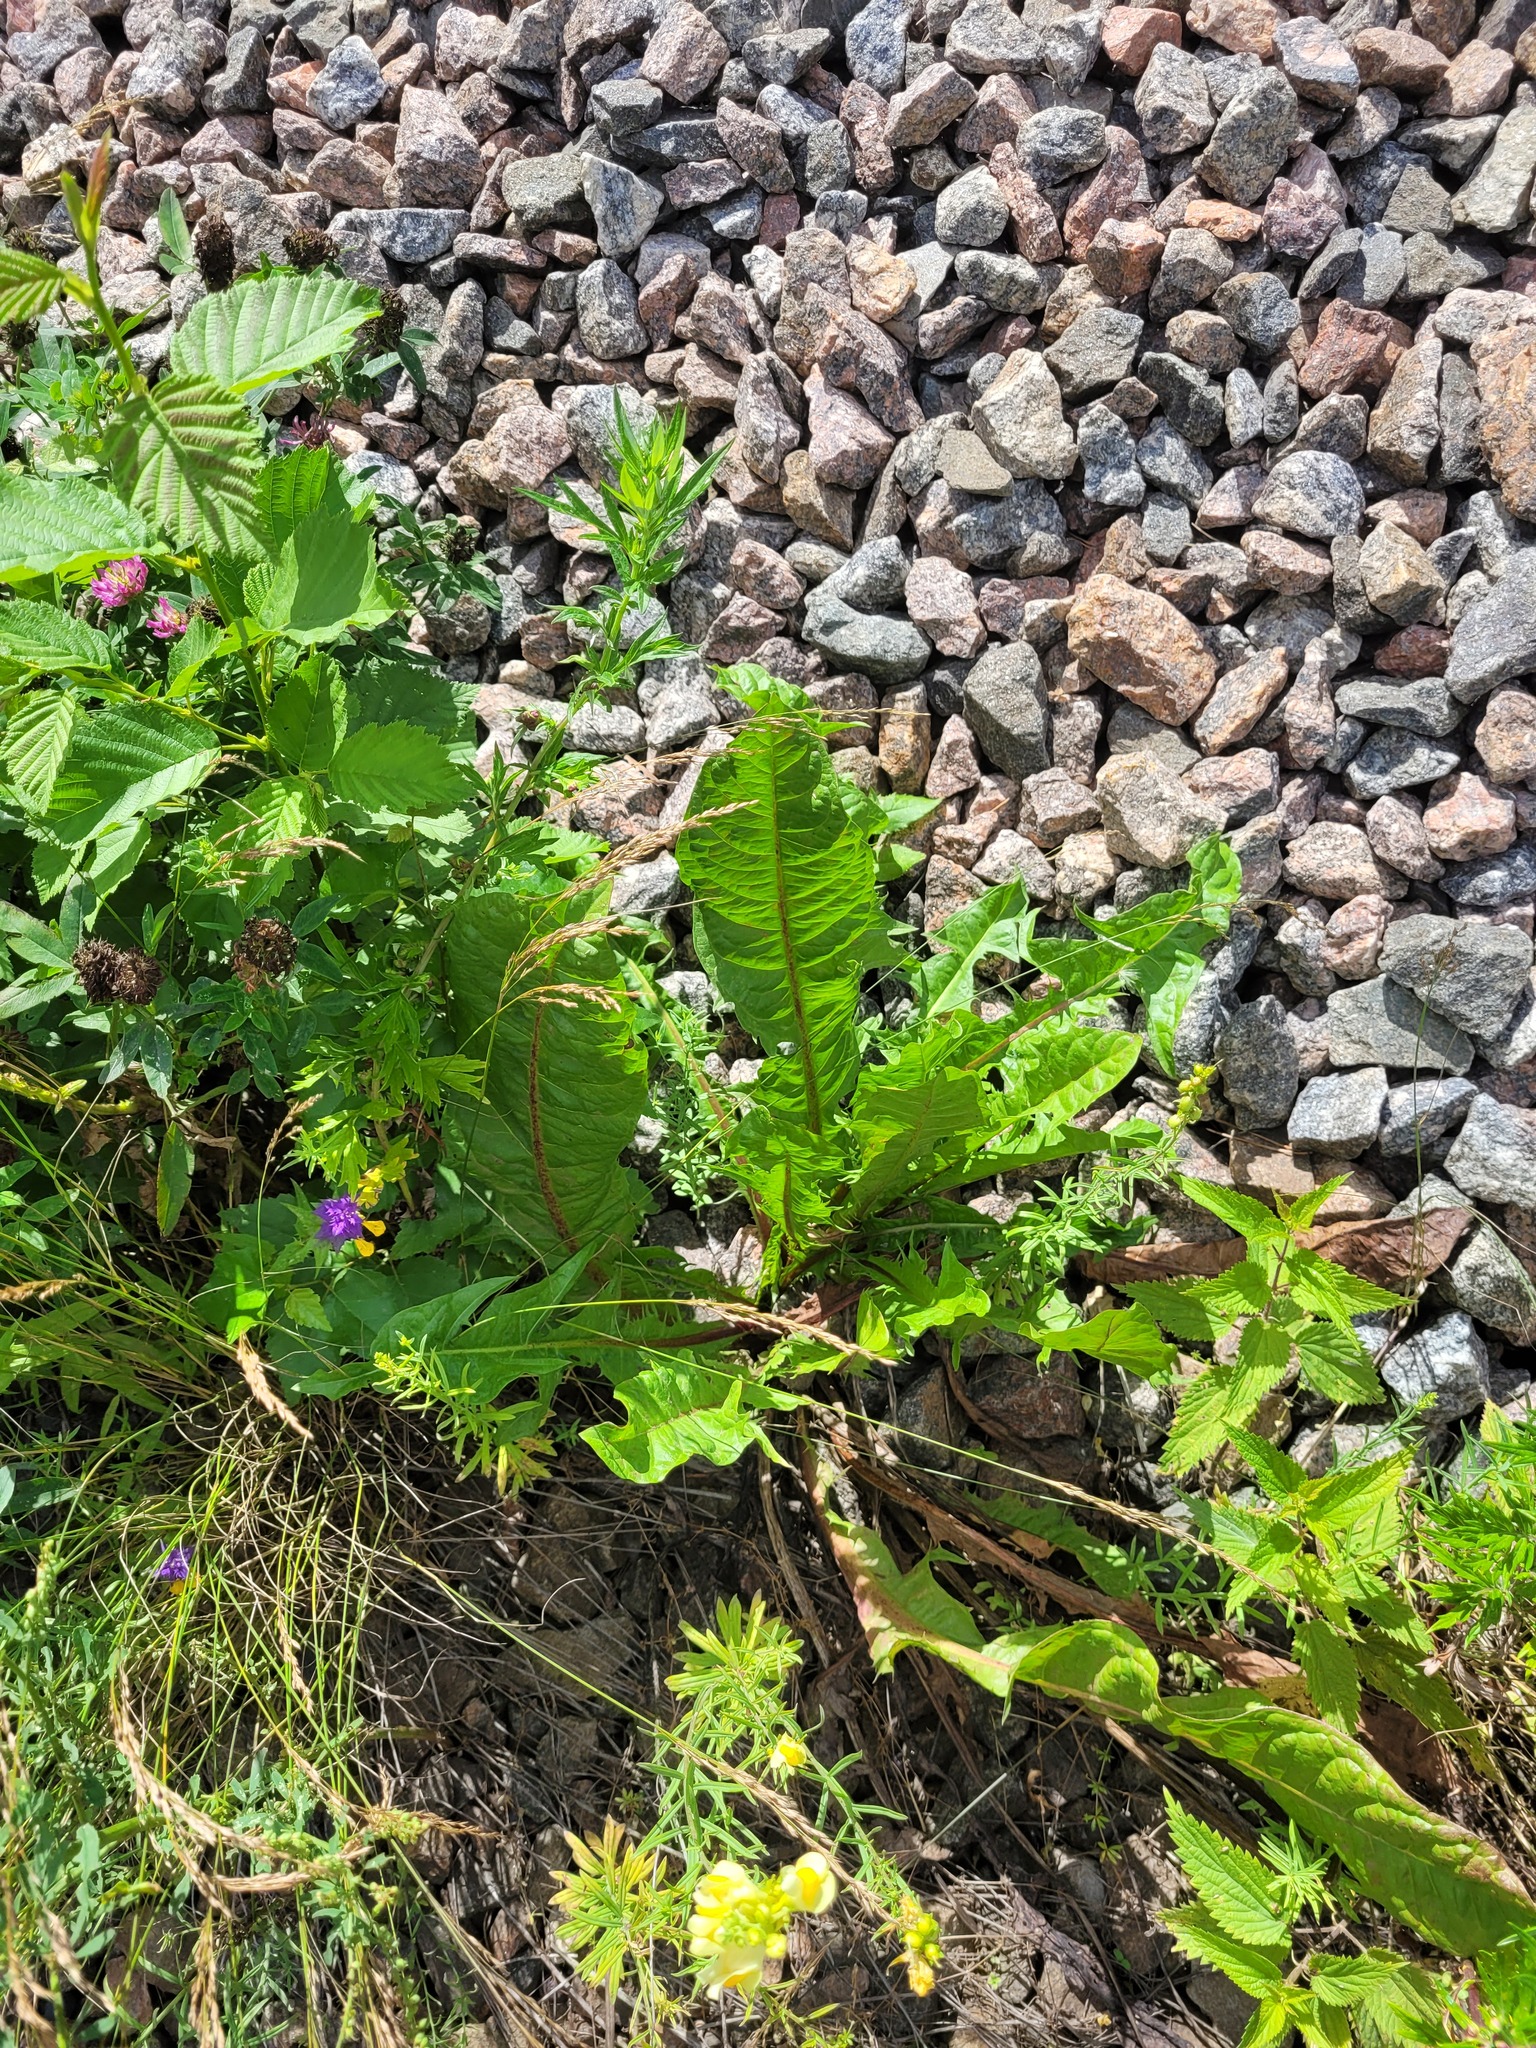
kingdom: Plantae
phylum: Tracheophyta
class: Magnoliopsida
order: Asterales
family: Asteraceae
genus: Taraxacum
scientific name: Taraxacum officinale
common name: Common dandelion
